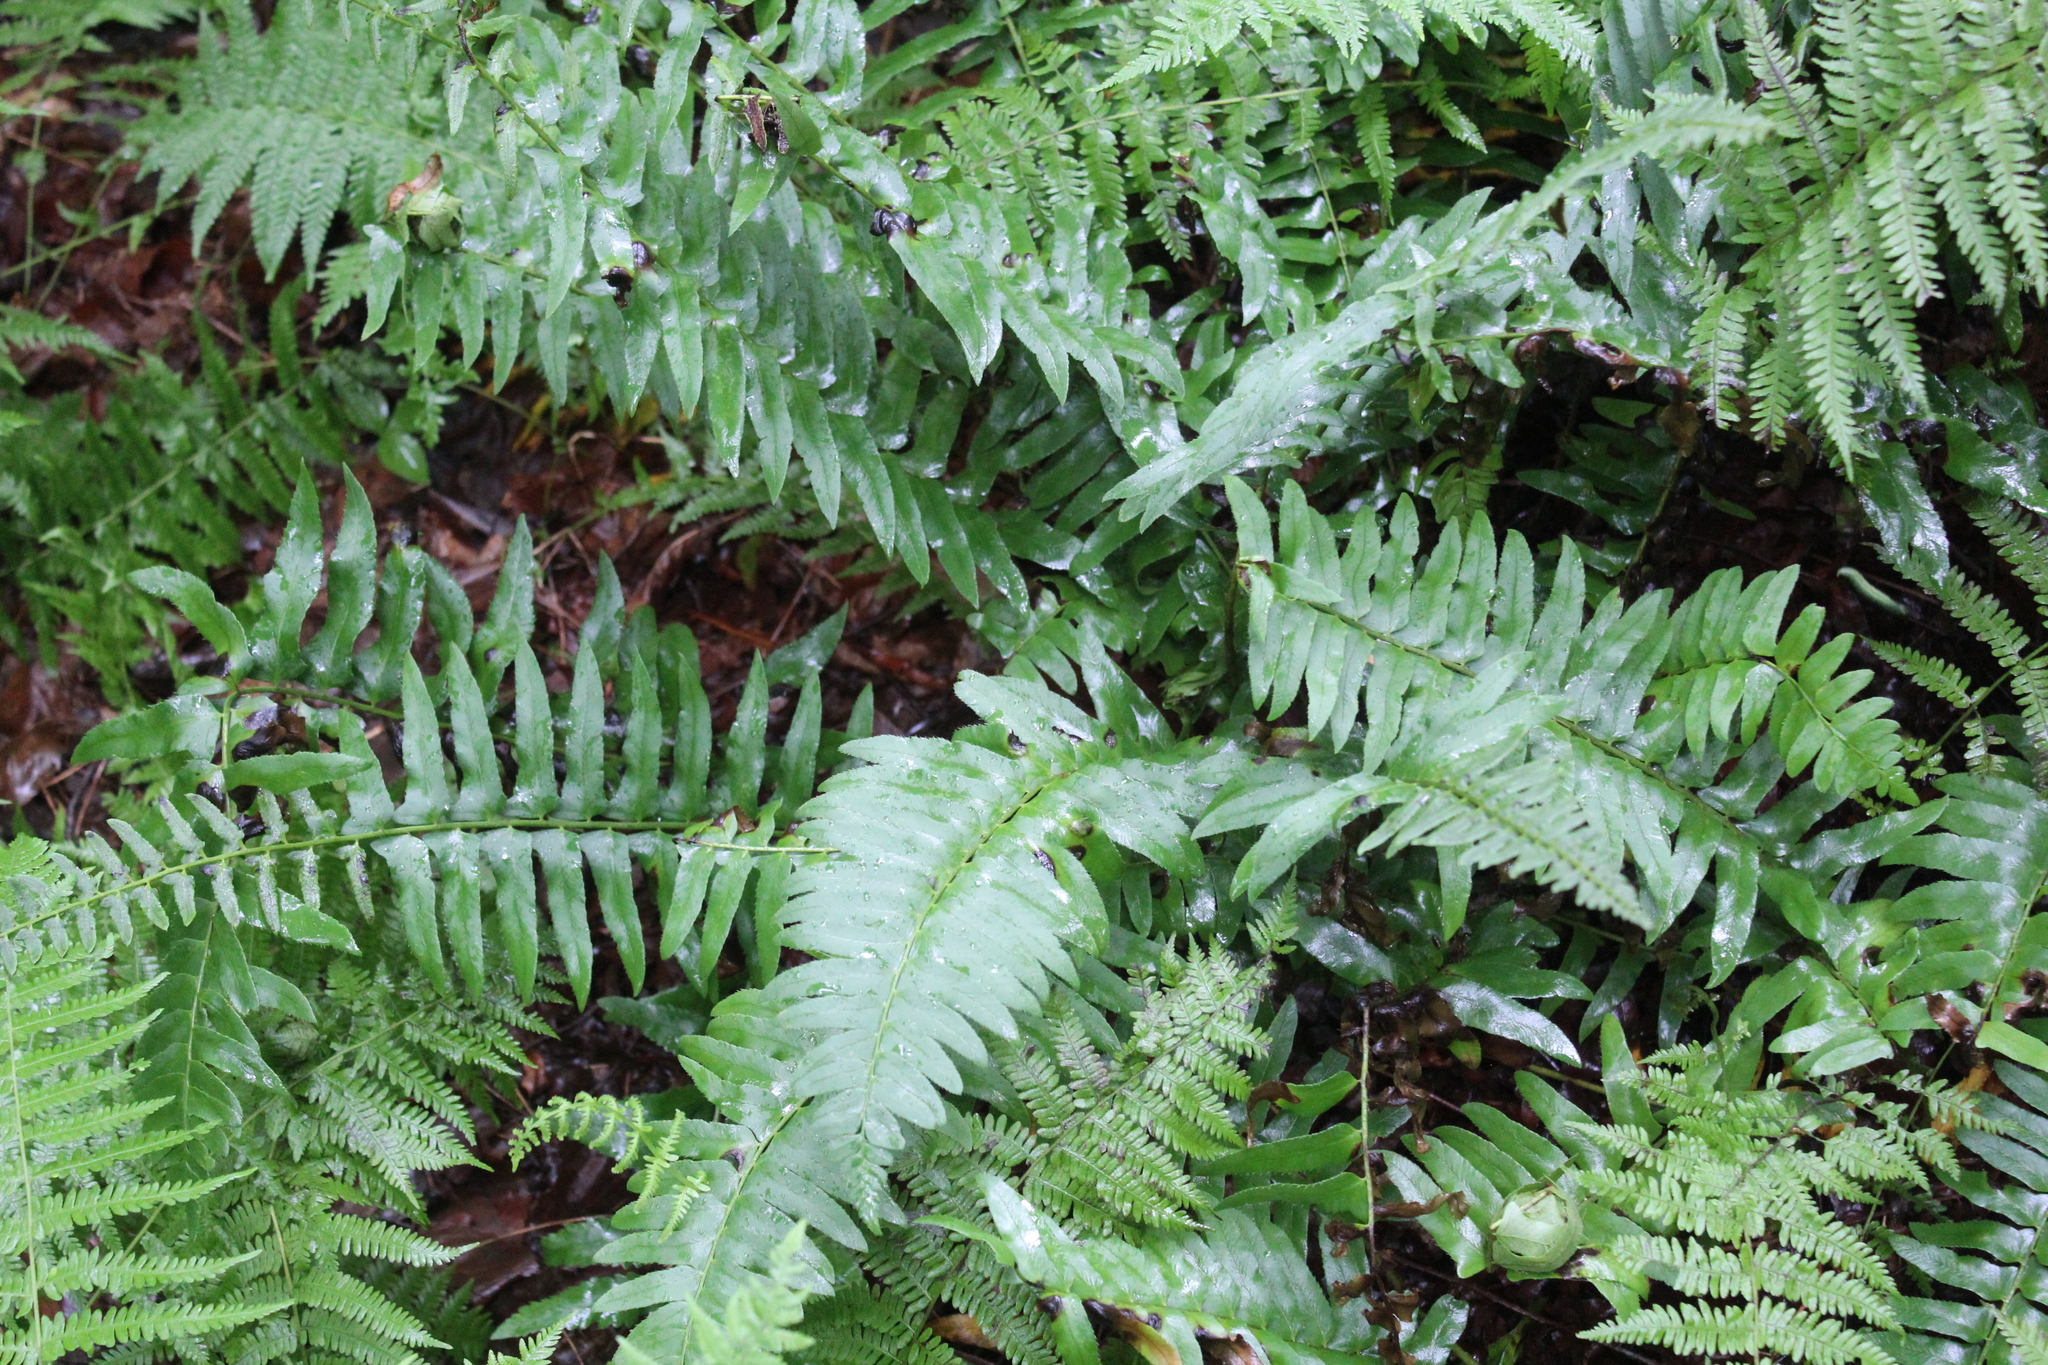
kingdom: Plantae
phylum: Tracheophyta
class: Polypodiopsida
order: Polypodiales
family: Dryopteridaceae
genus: Polystichum
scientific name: Polystichum acrostichoides
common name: Christmas fern
